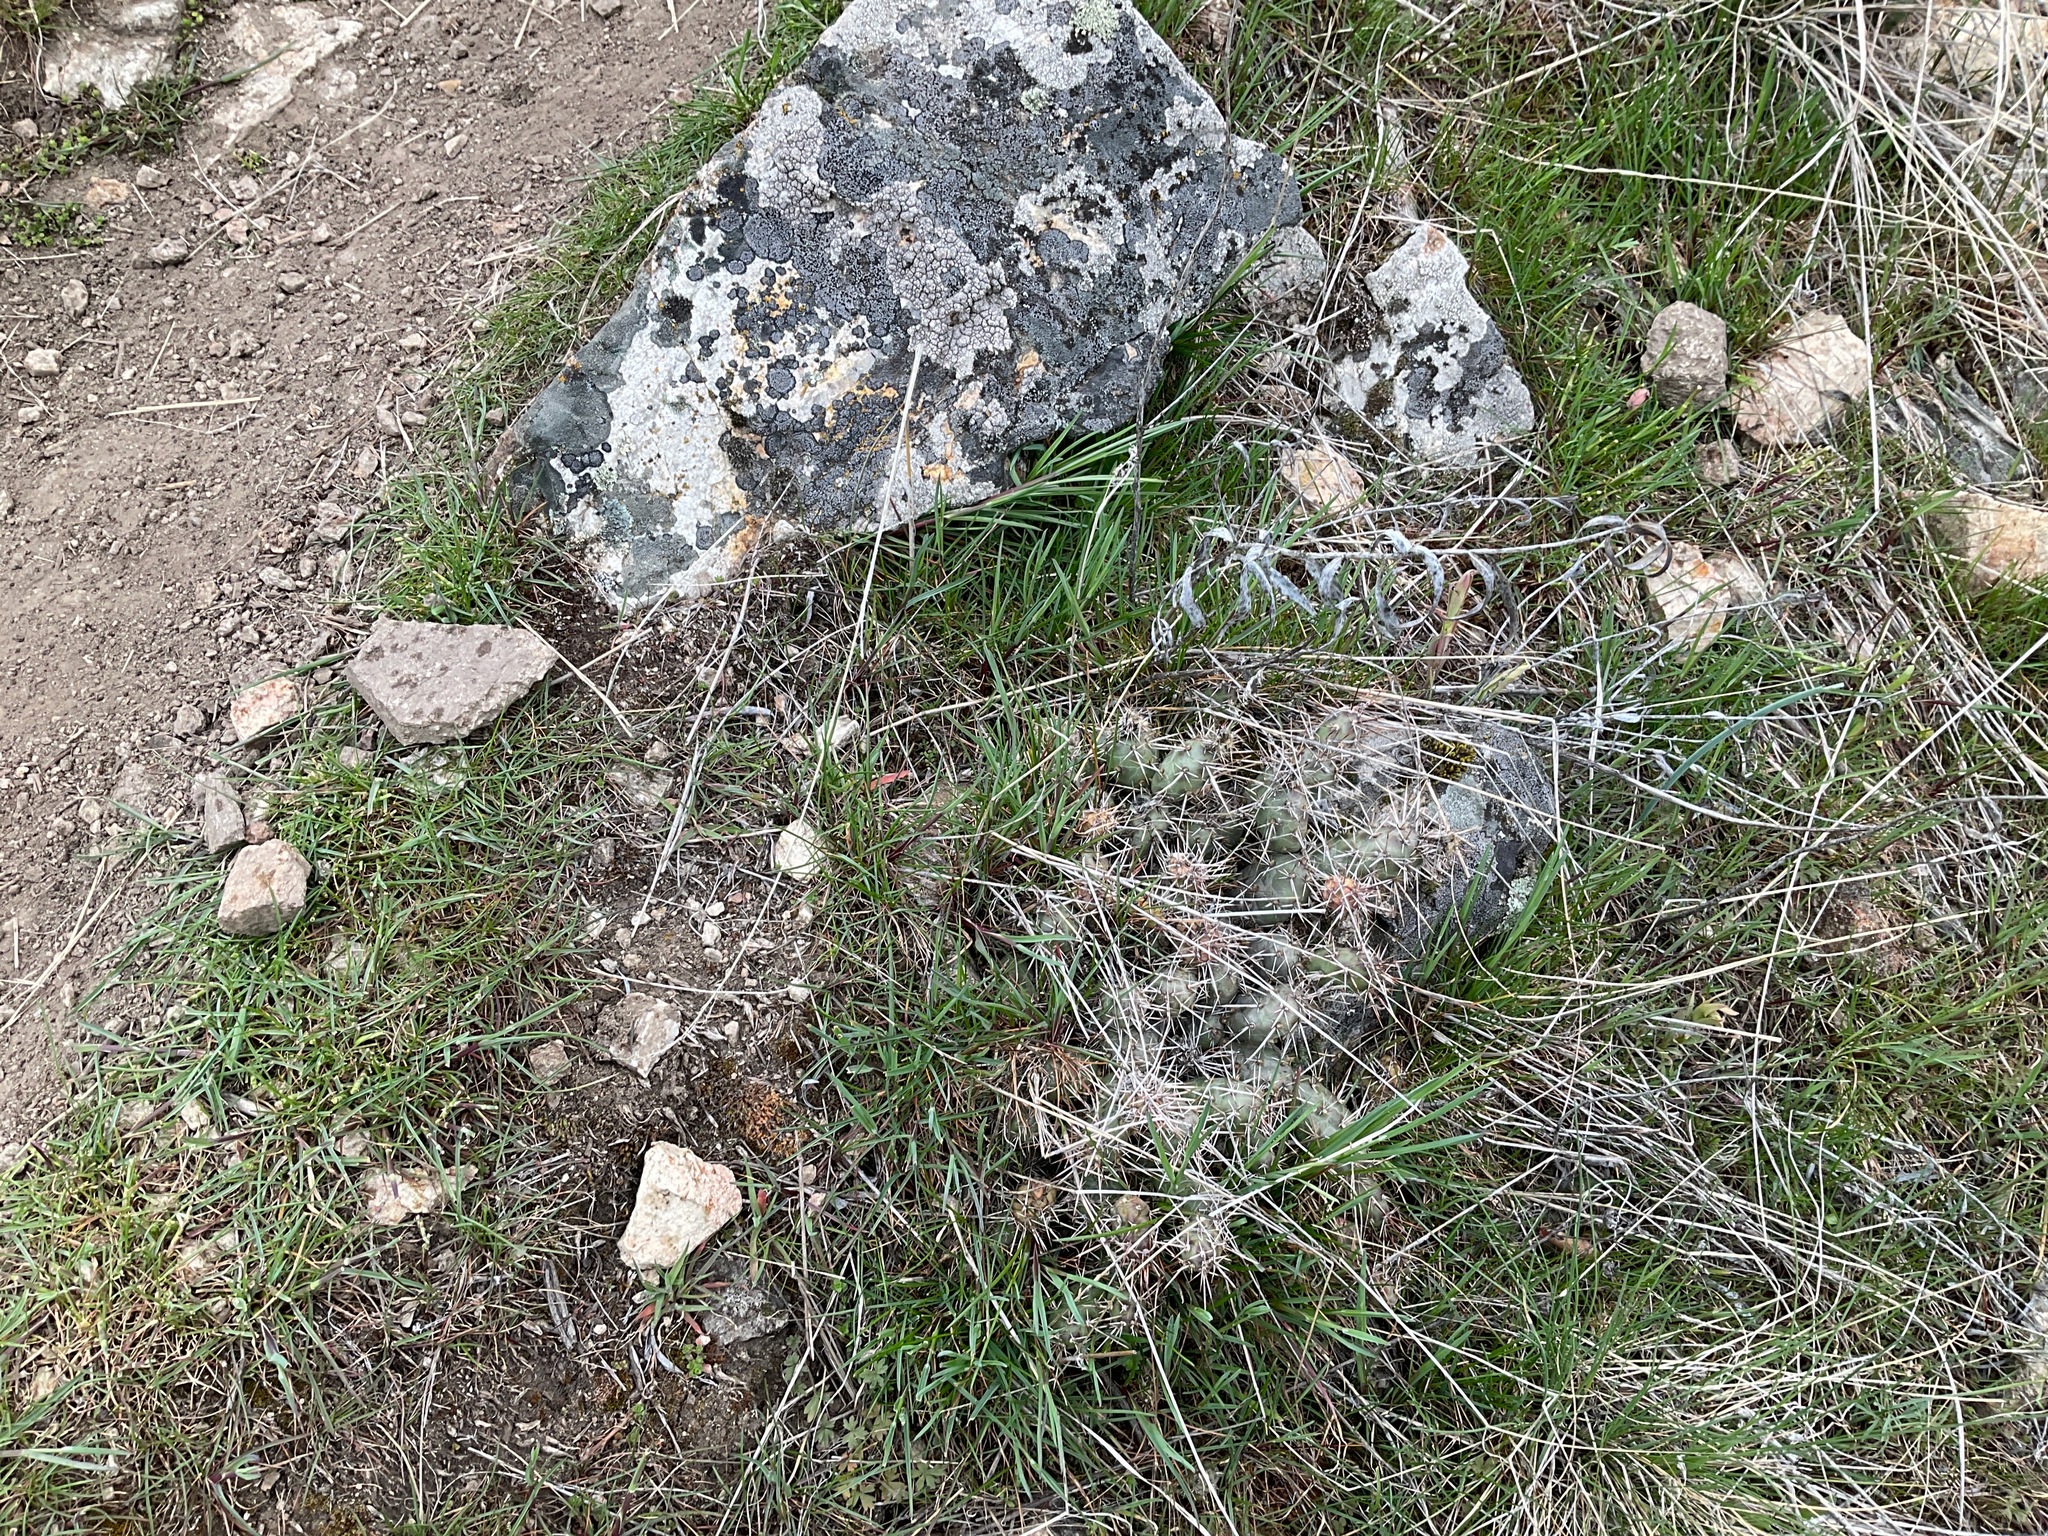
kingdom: Plantae
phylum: Tracheophyta
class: Magnoliopsida
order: Caryophyllales
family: Cactaceae
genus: Opuntia
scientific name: Opuntia fragilis
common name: Brittle cactus
